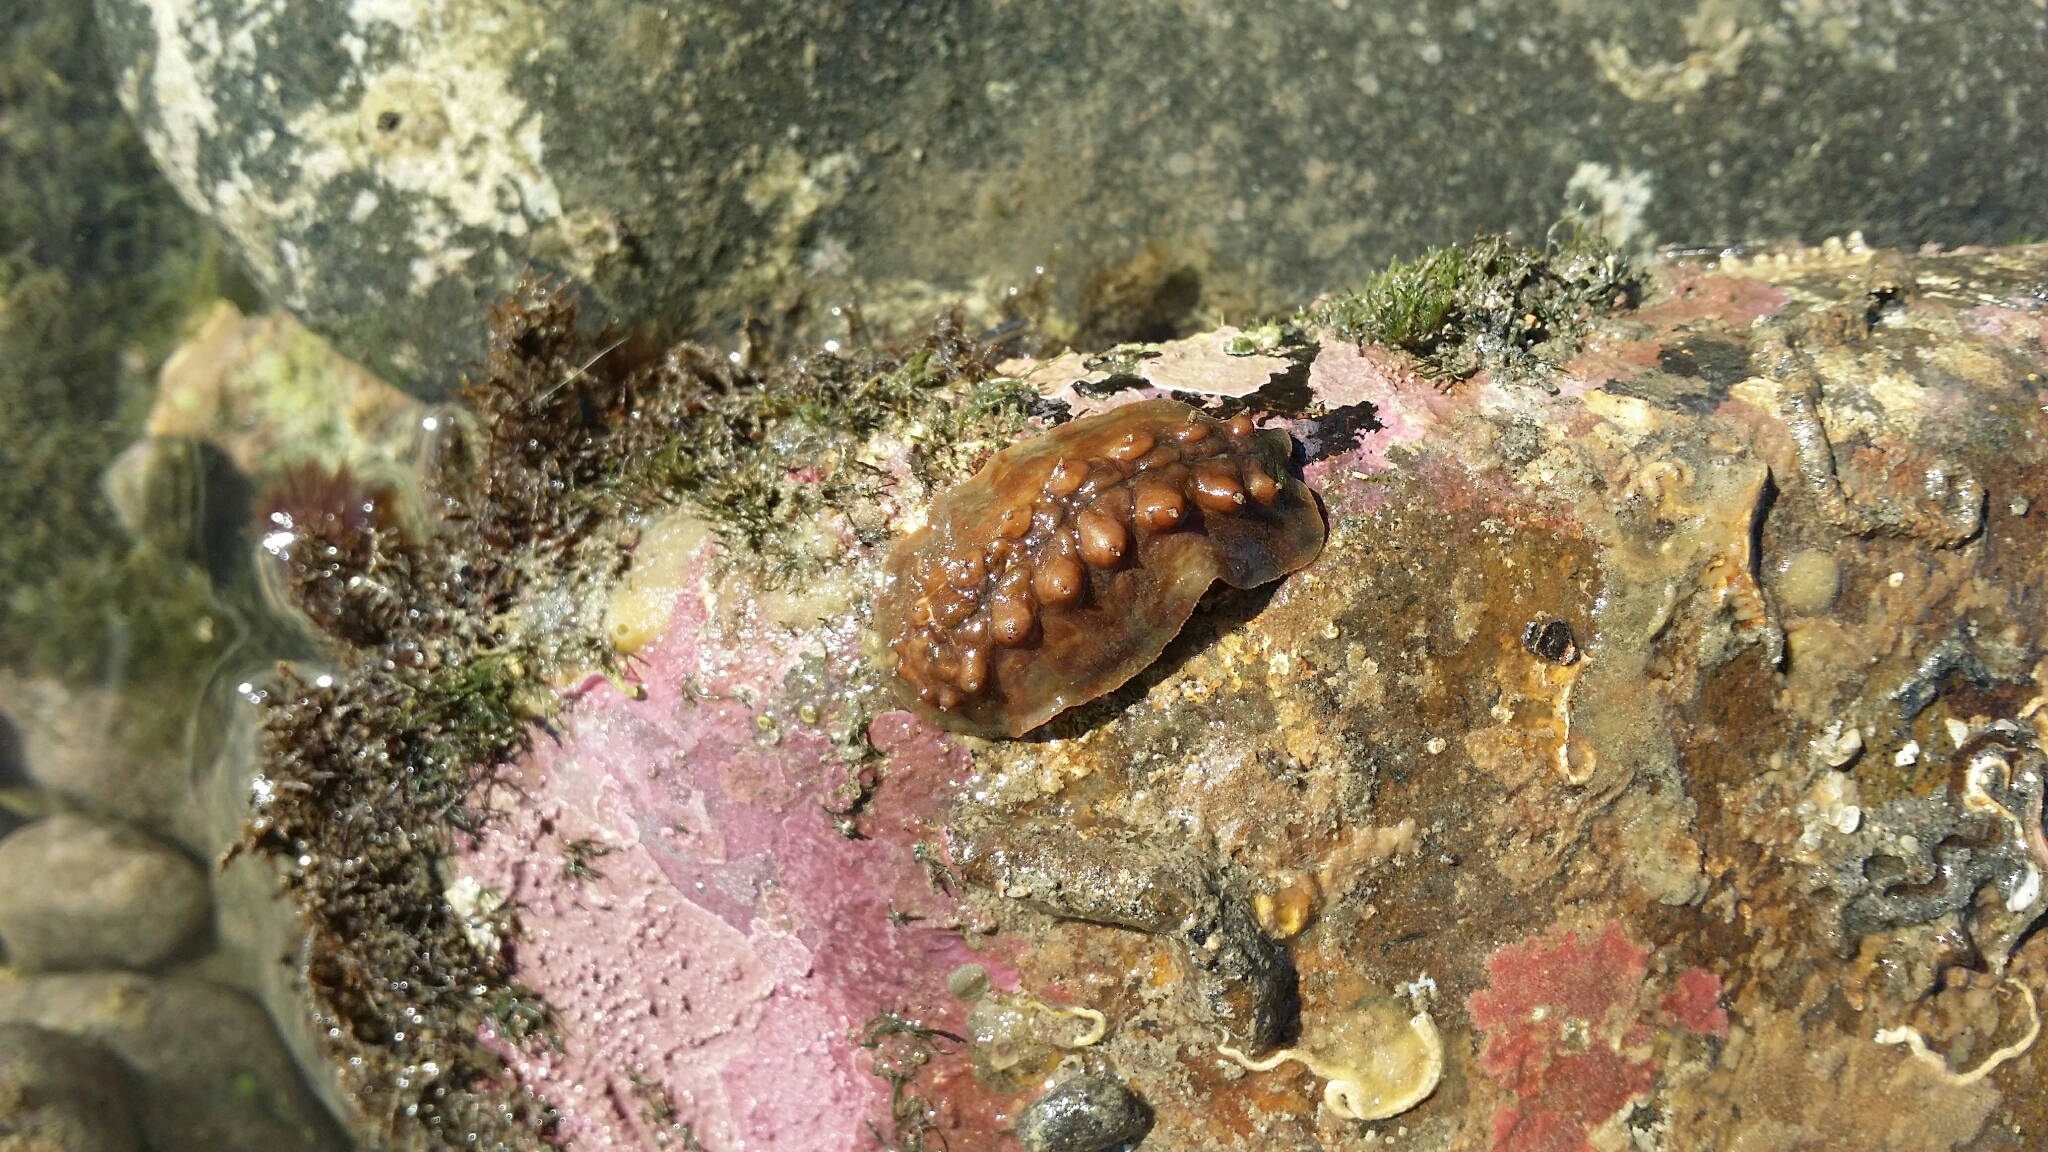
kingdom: Animalia
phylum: Mollusca
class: Polyplacophora
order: Chitonida
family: Acanthochitonidae
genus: Cryptoconchus
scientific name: Cryptoconchus porosus
